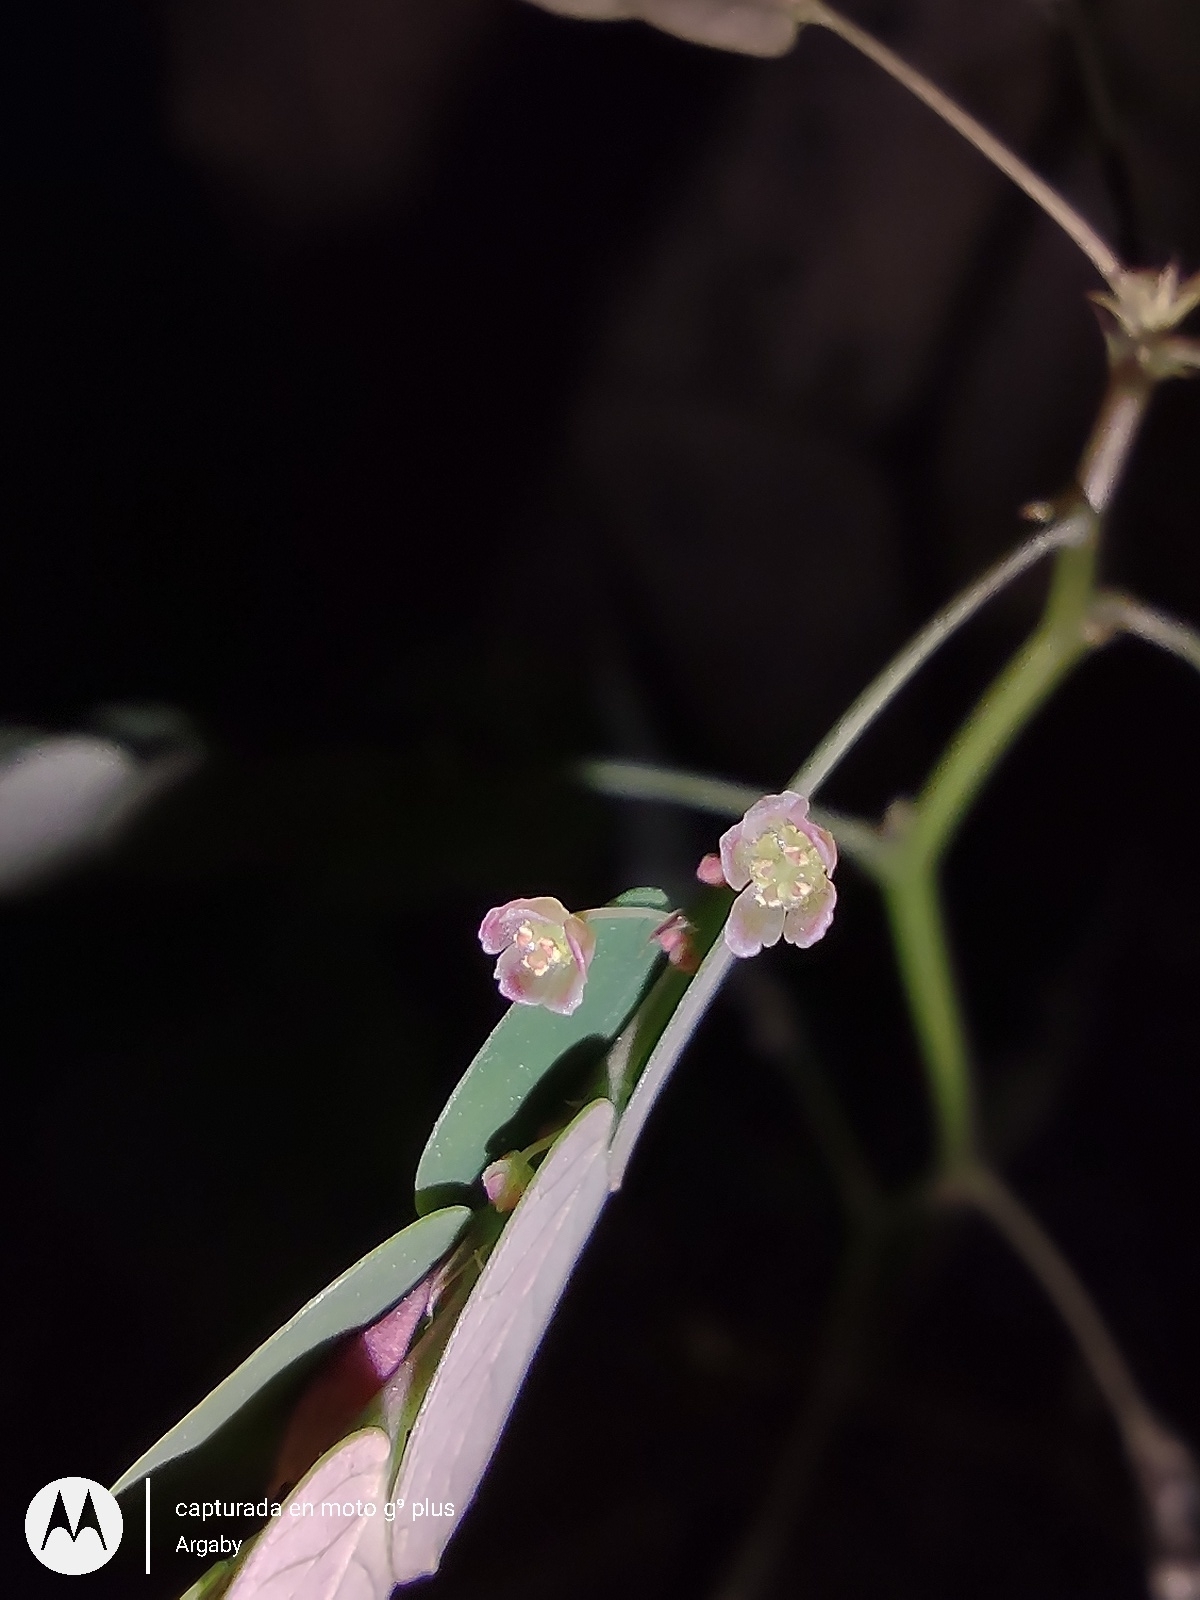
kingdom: Plantae
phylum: Tracheophyta
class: Magnoliopsida
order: Malpighiales
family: Phyllanthaceae
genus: Phyllanthus
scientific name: Phyllanthus niruri
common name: Niruri
